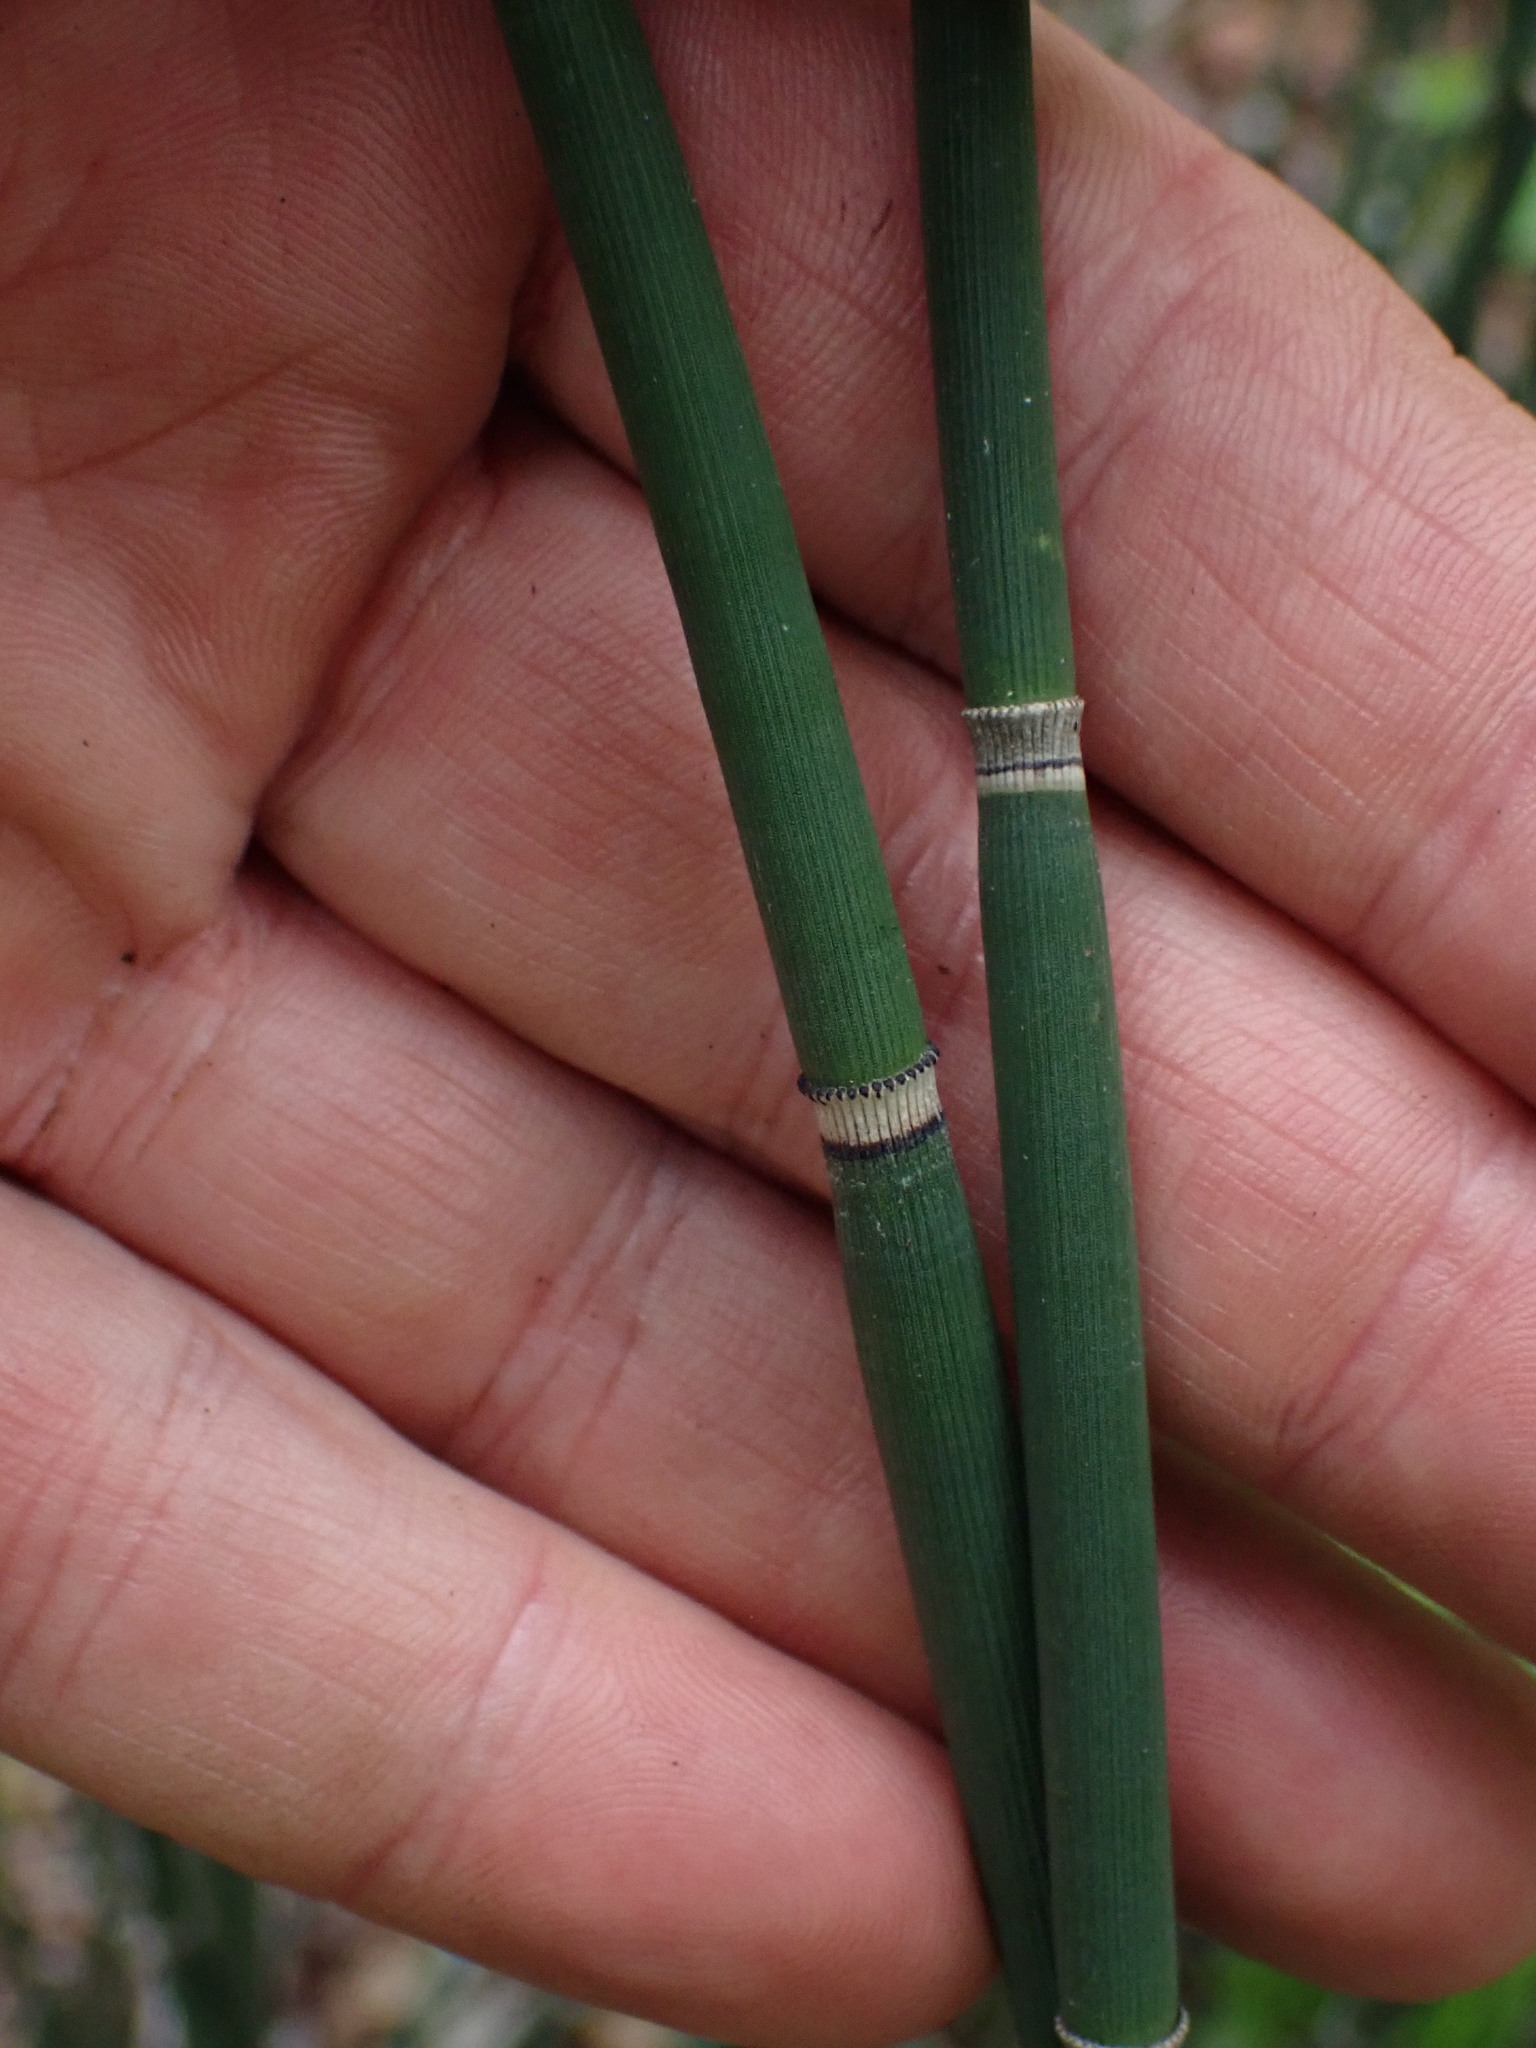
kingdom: Plantae
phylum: Tracheophyta
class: Polypodiopsida
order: Equisetales
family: Equisetaceae
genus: Equisetum
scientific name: Equisetum hyemale
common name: Rough horsetail
